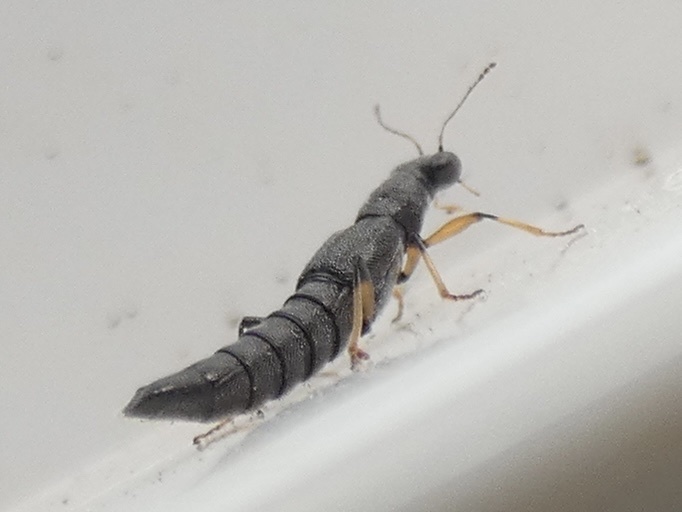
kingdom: Animalia
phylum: Arthropoda
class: Insecta
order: Coleoptera
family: Staphylinidae
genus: Stenus
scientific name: Stenus similis
